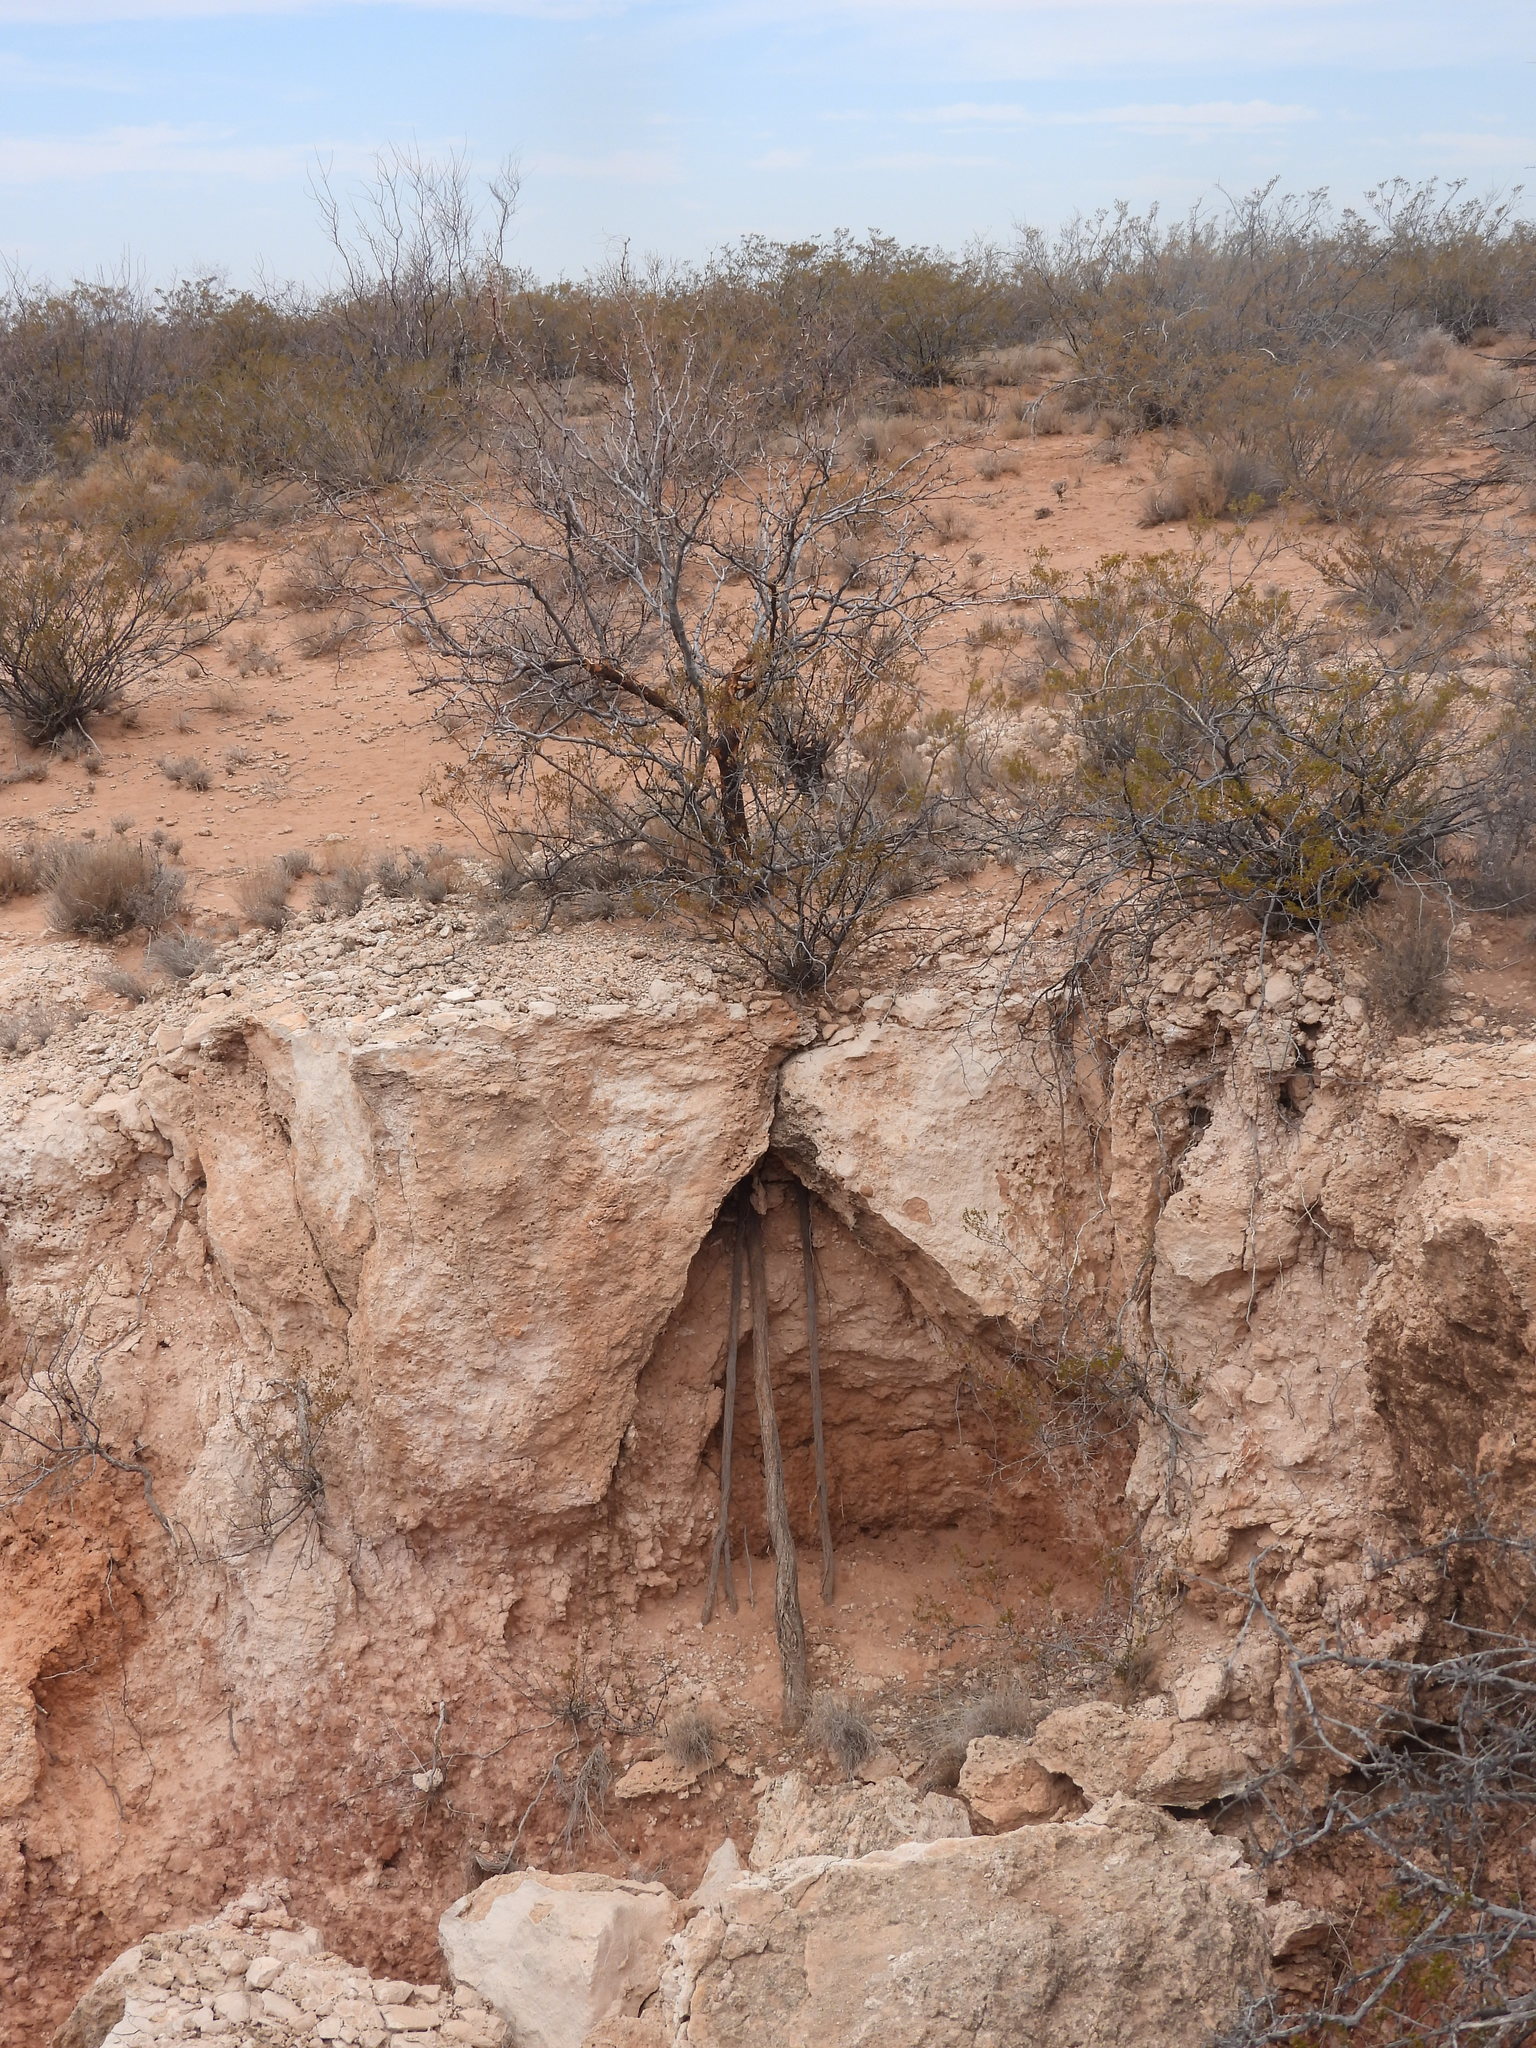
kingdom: Plantae
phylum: Tracheophyta
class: Magnoliopsida
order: Fabales
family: Fabaceae
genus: Prosopis
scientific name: Prosopis glandulosa
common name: Honey mesquite
